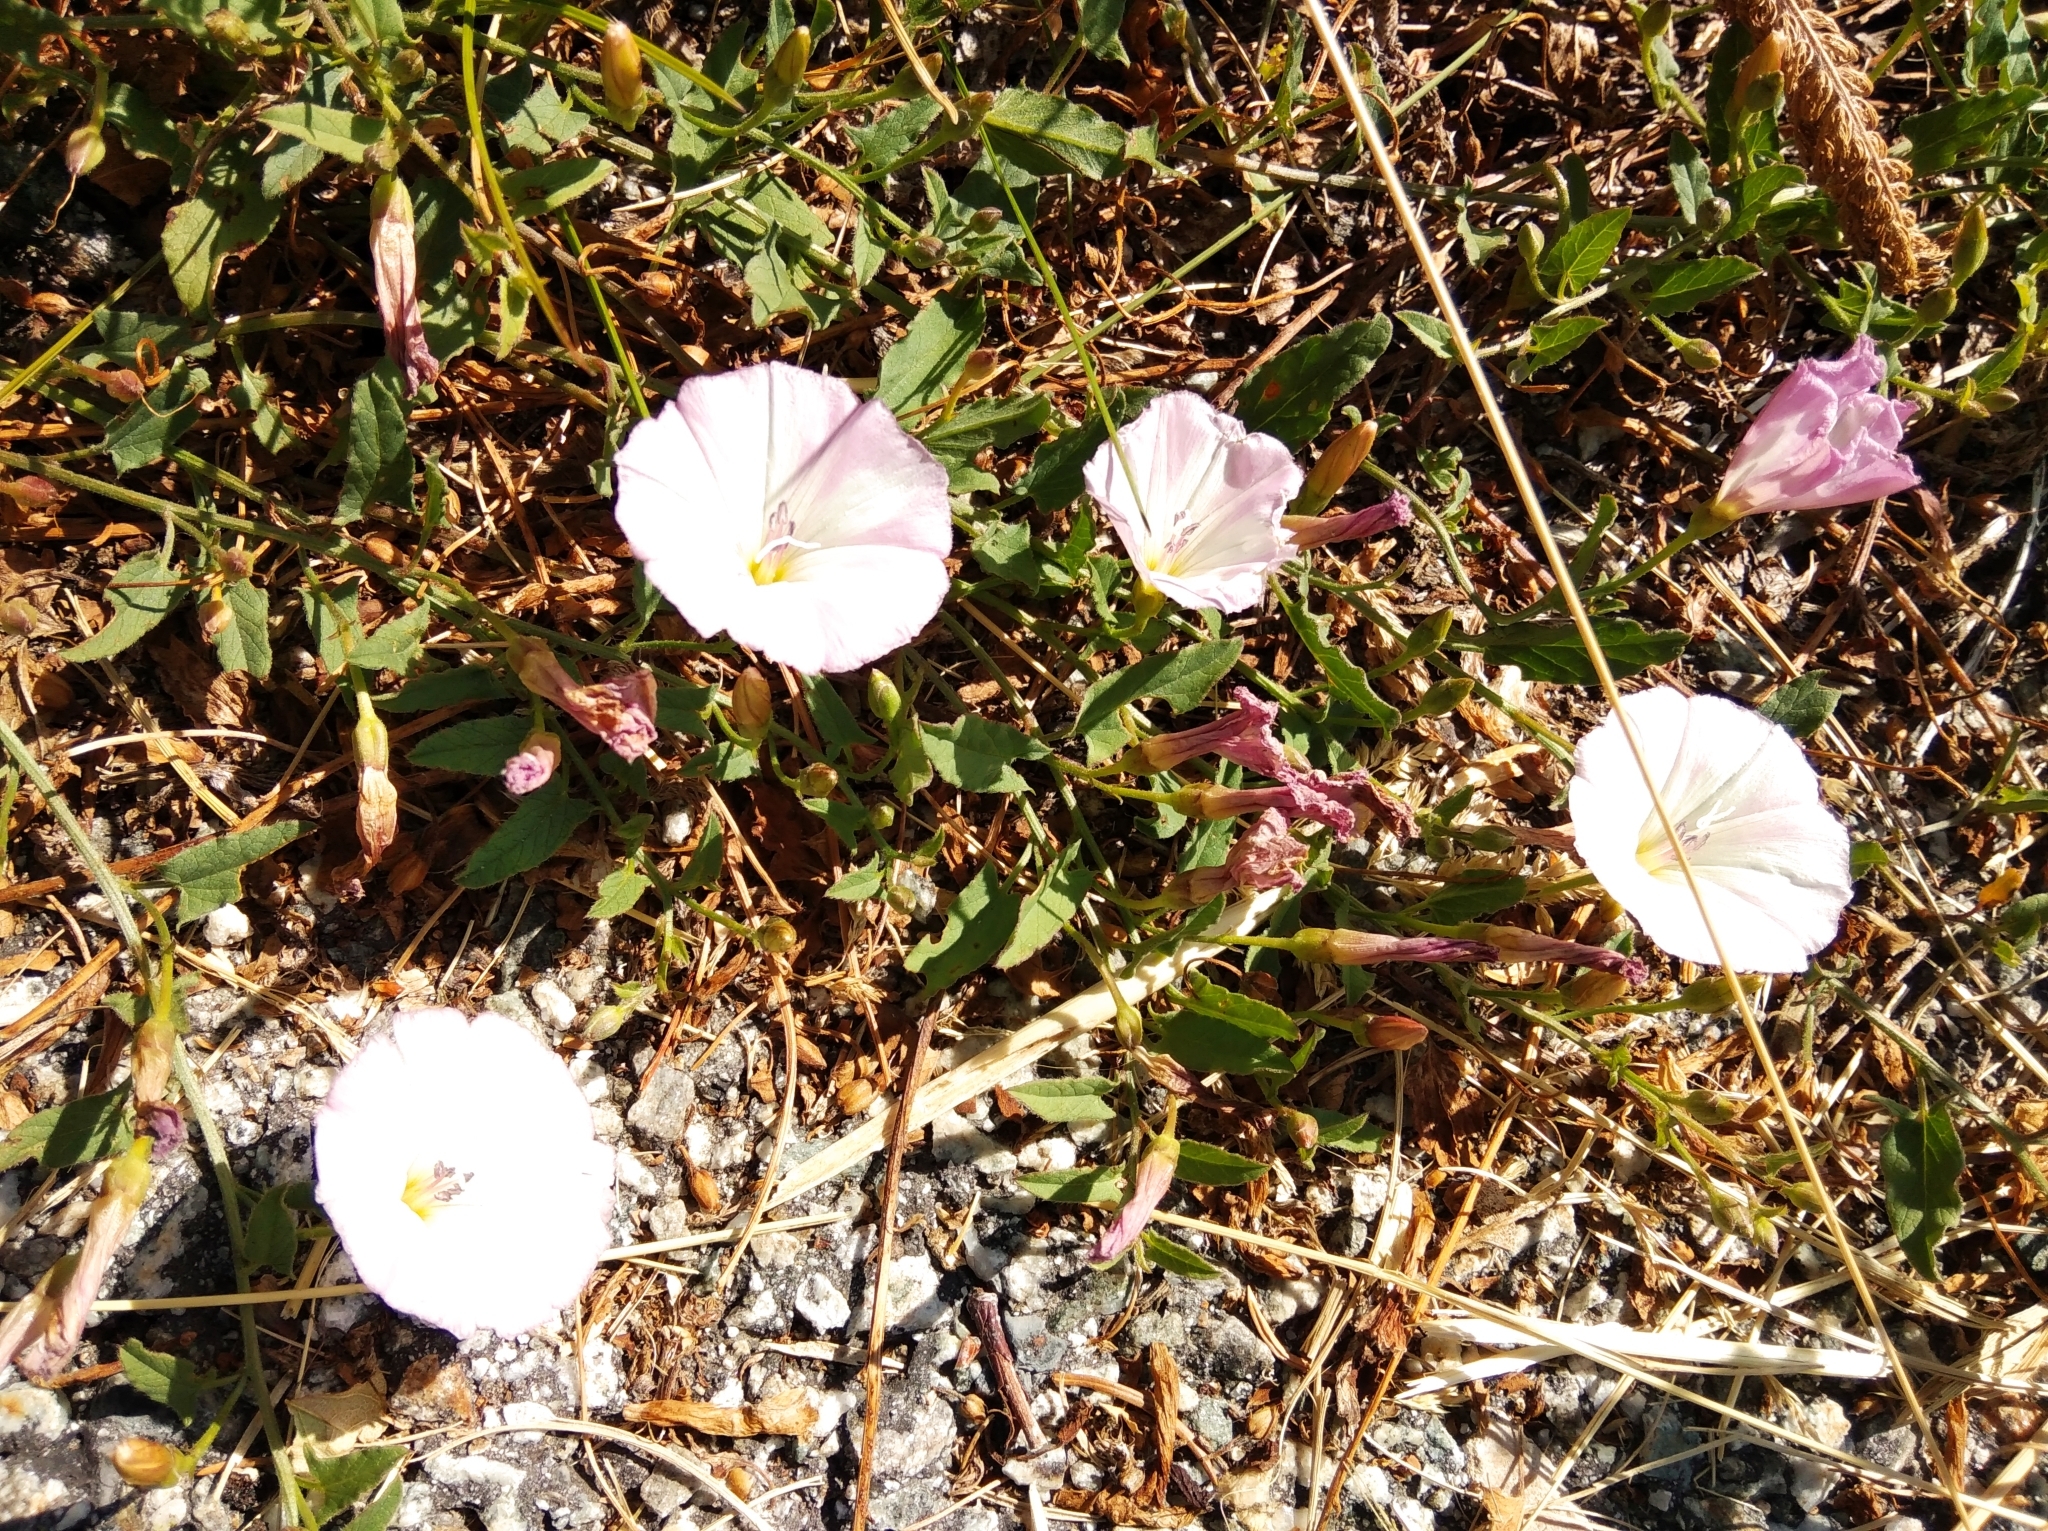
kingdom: Plantae
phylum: Tracheophyta
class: Magnoliopsida
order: Solanales
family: Convolvulaceae
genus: Convolvulus
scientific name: Convolvulus arvensis
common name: Field bindweed
